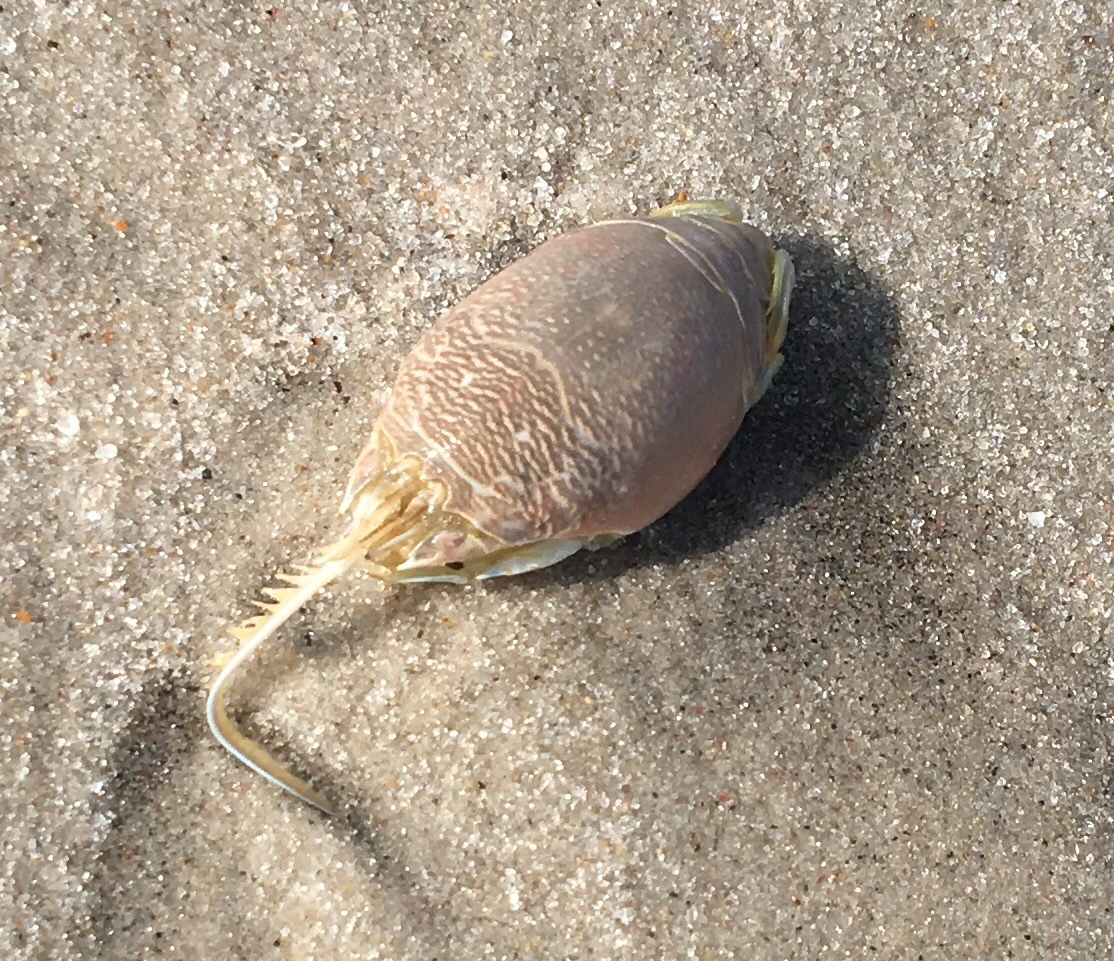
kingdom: Animalia
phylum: Arthropoda
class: Malacostraca
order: Decapoda
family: Hippidae
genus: Emerita
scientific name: Emerita talpoida
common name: Atlantic sand crab
